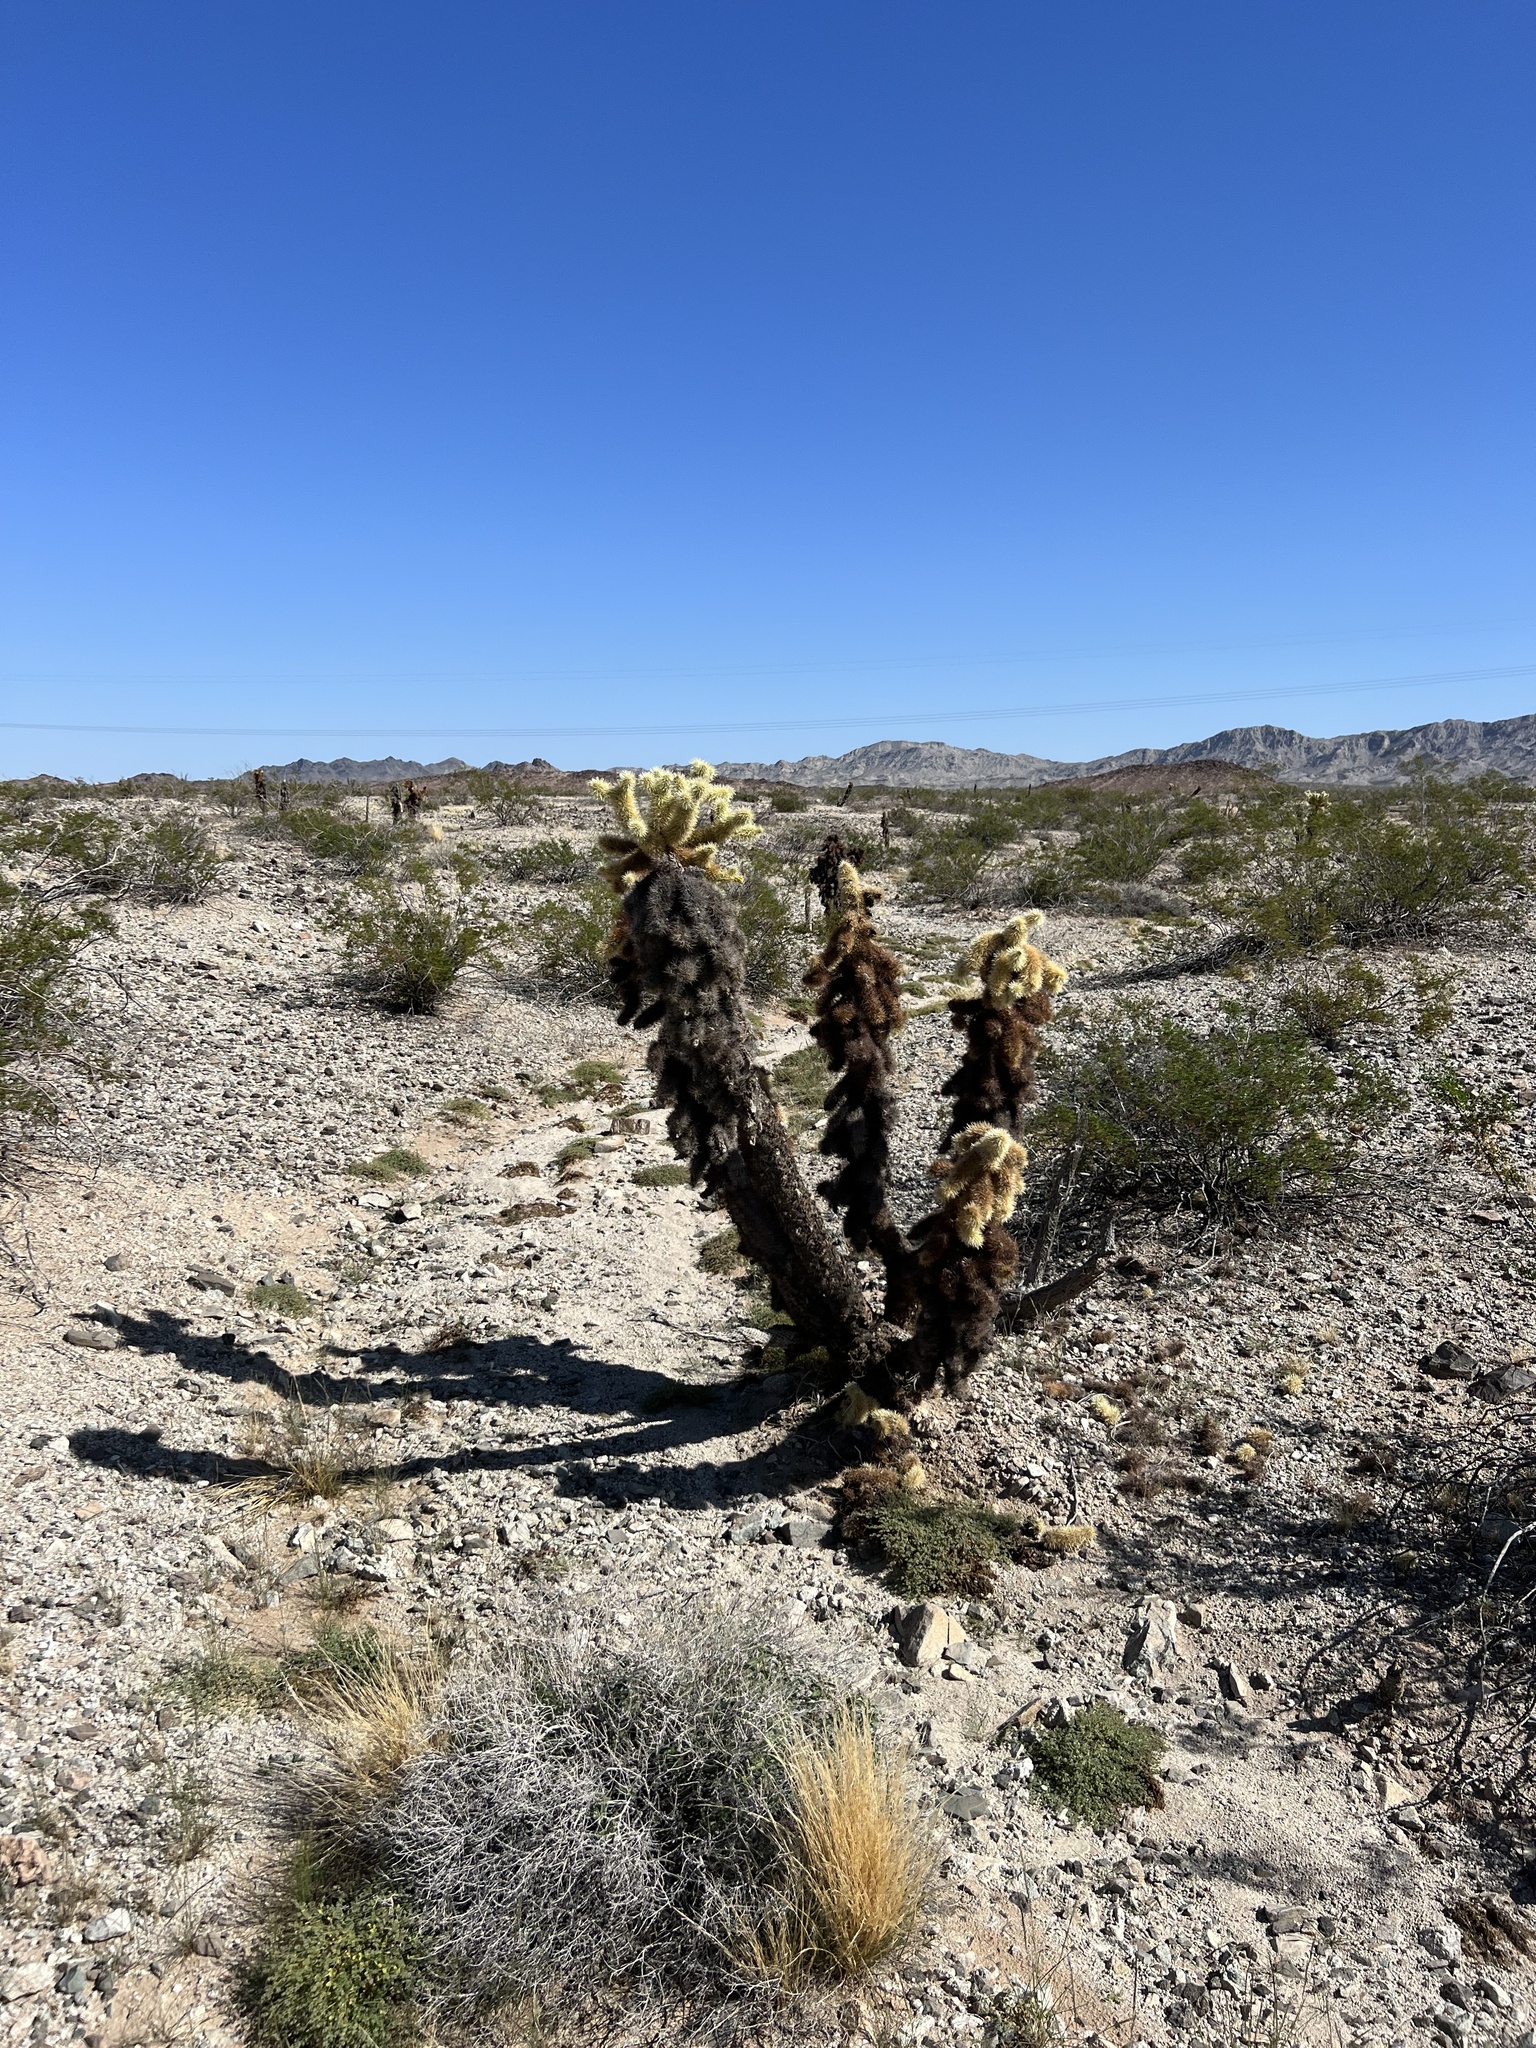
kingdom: Plantae
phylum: Tracheophyta
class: Magnoliopsida
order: Caryophyllales
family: Cactaceae
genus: Cylindropuntia
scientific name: Cylindropuntia fosbergii
